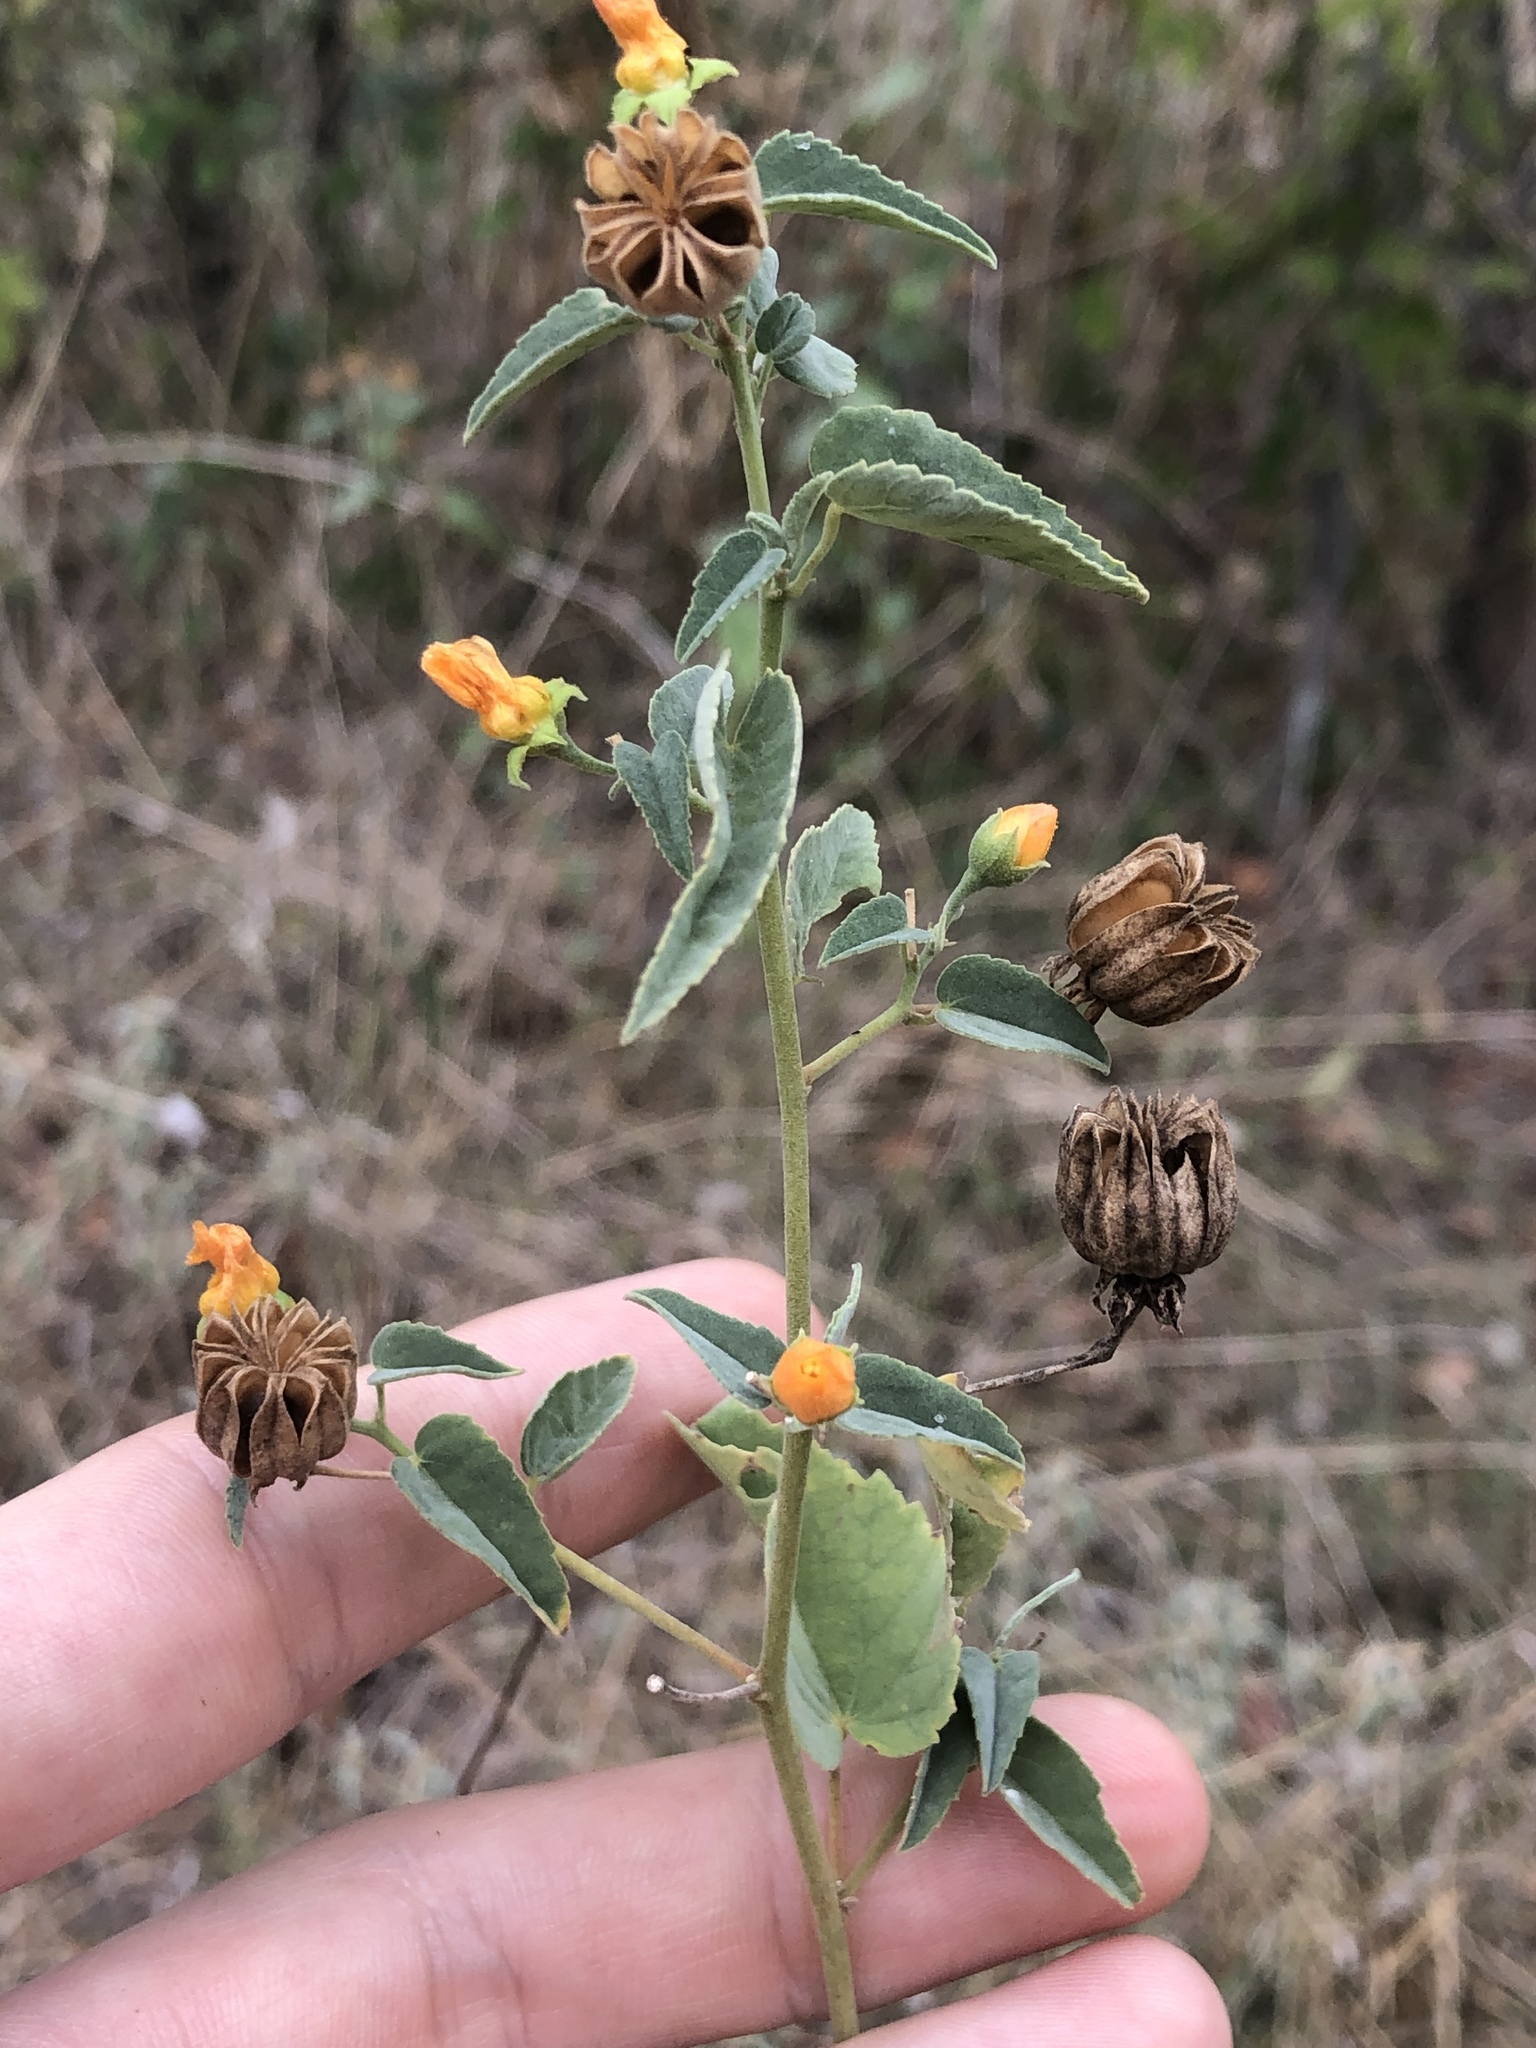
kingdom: Plantae
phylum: Tracheophyta
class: Magnoliopsida
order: Malvales
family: Malvaceae
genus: Abutilon
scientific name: Abutilon fruticosum
